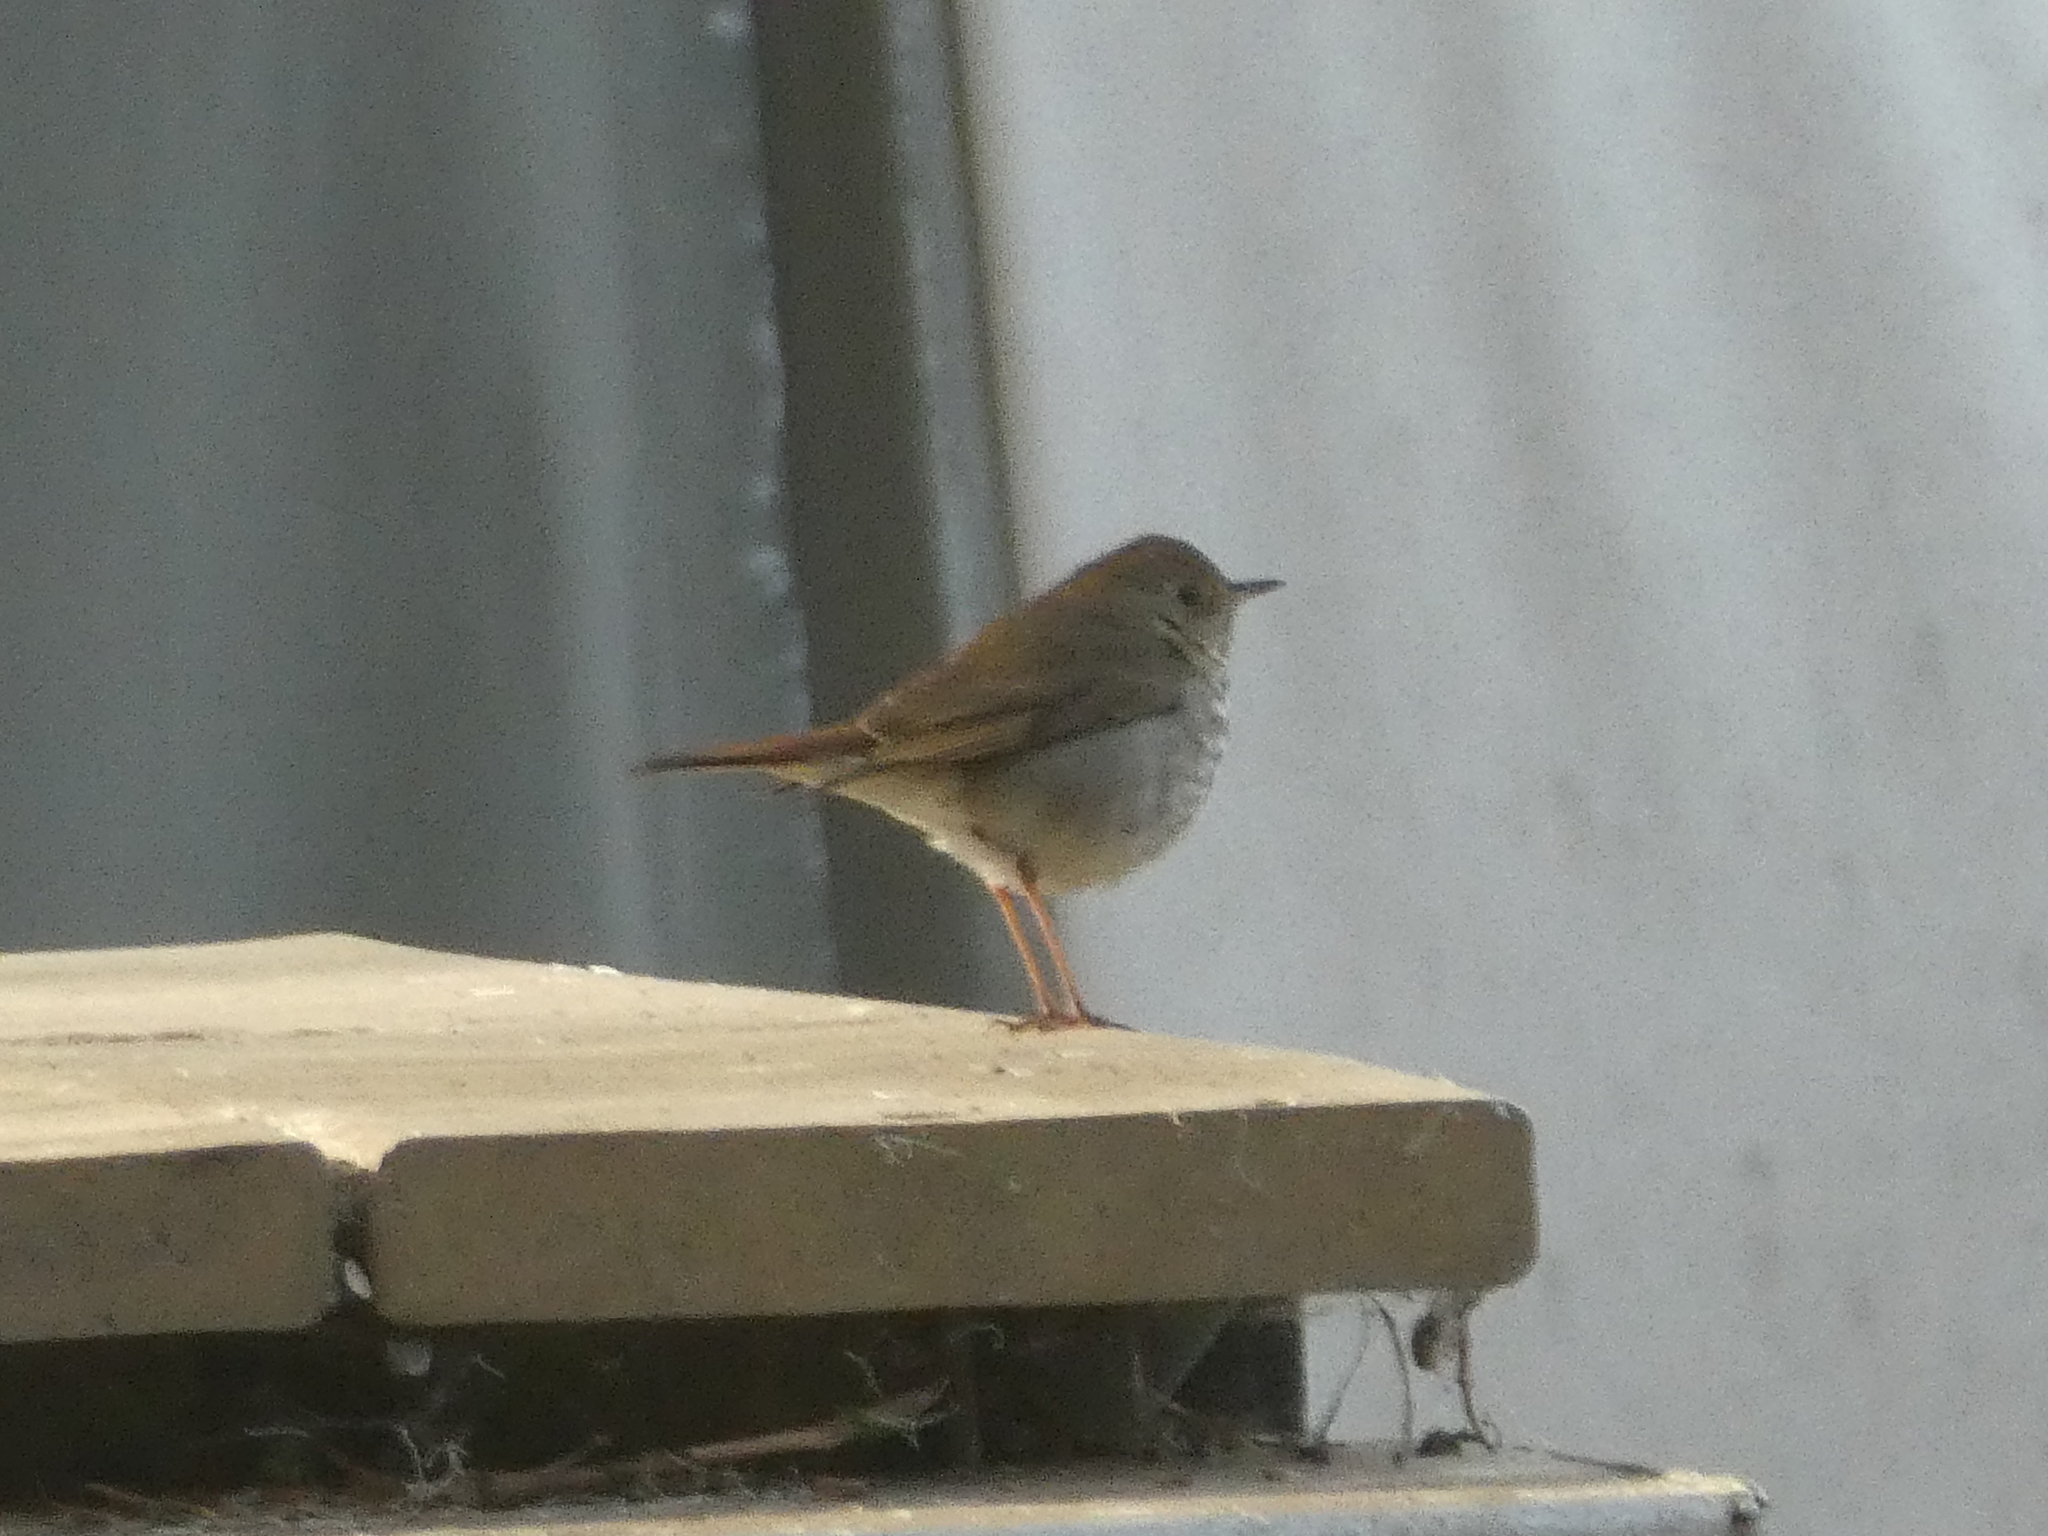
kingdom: Animalia
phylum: Chordata
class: Aves
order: Passeriformes
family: Turdidae
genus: Catharus
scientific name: Catharus guttatus
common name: Hermit thrush
